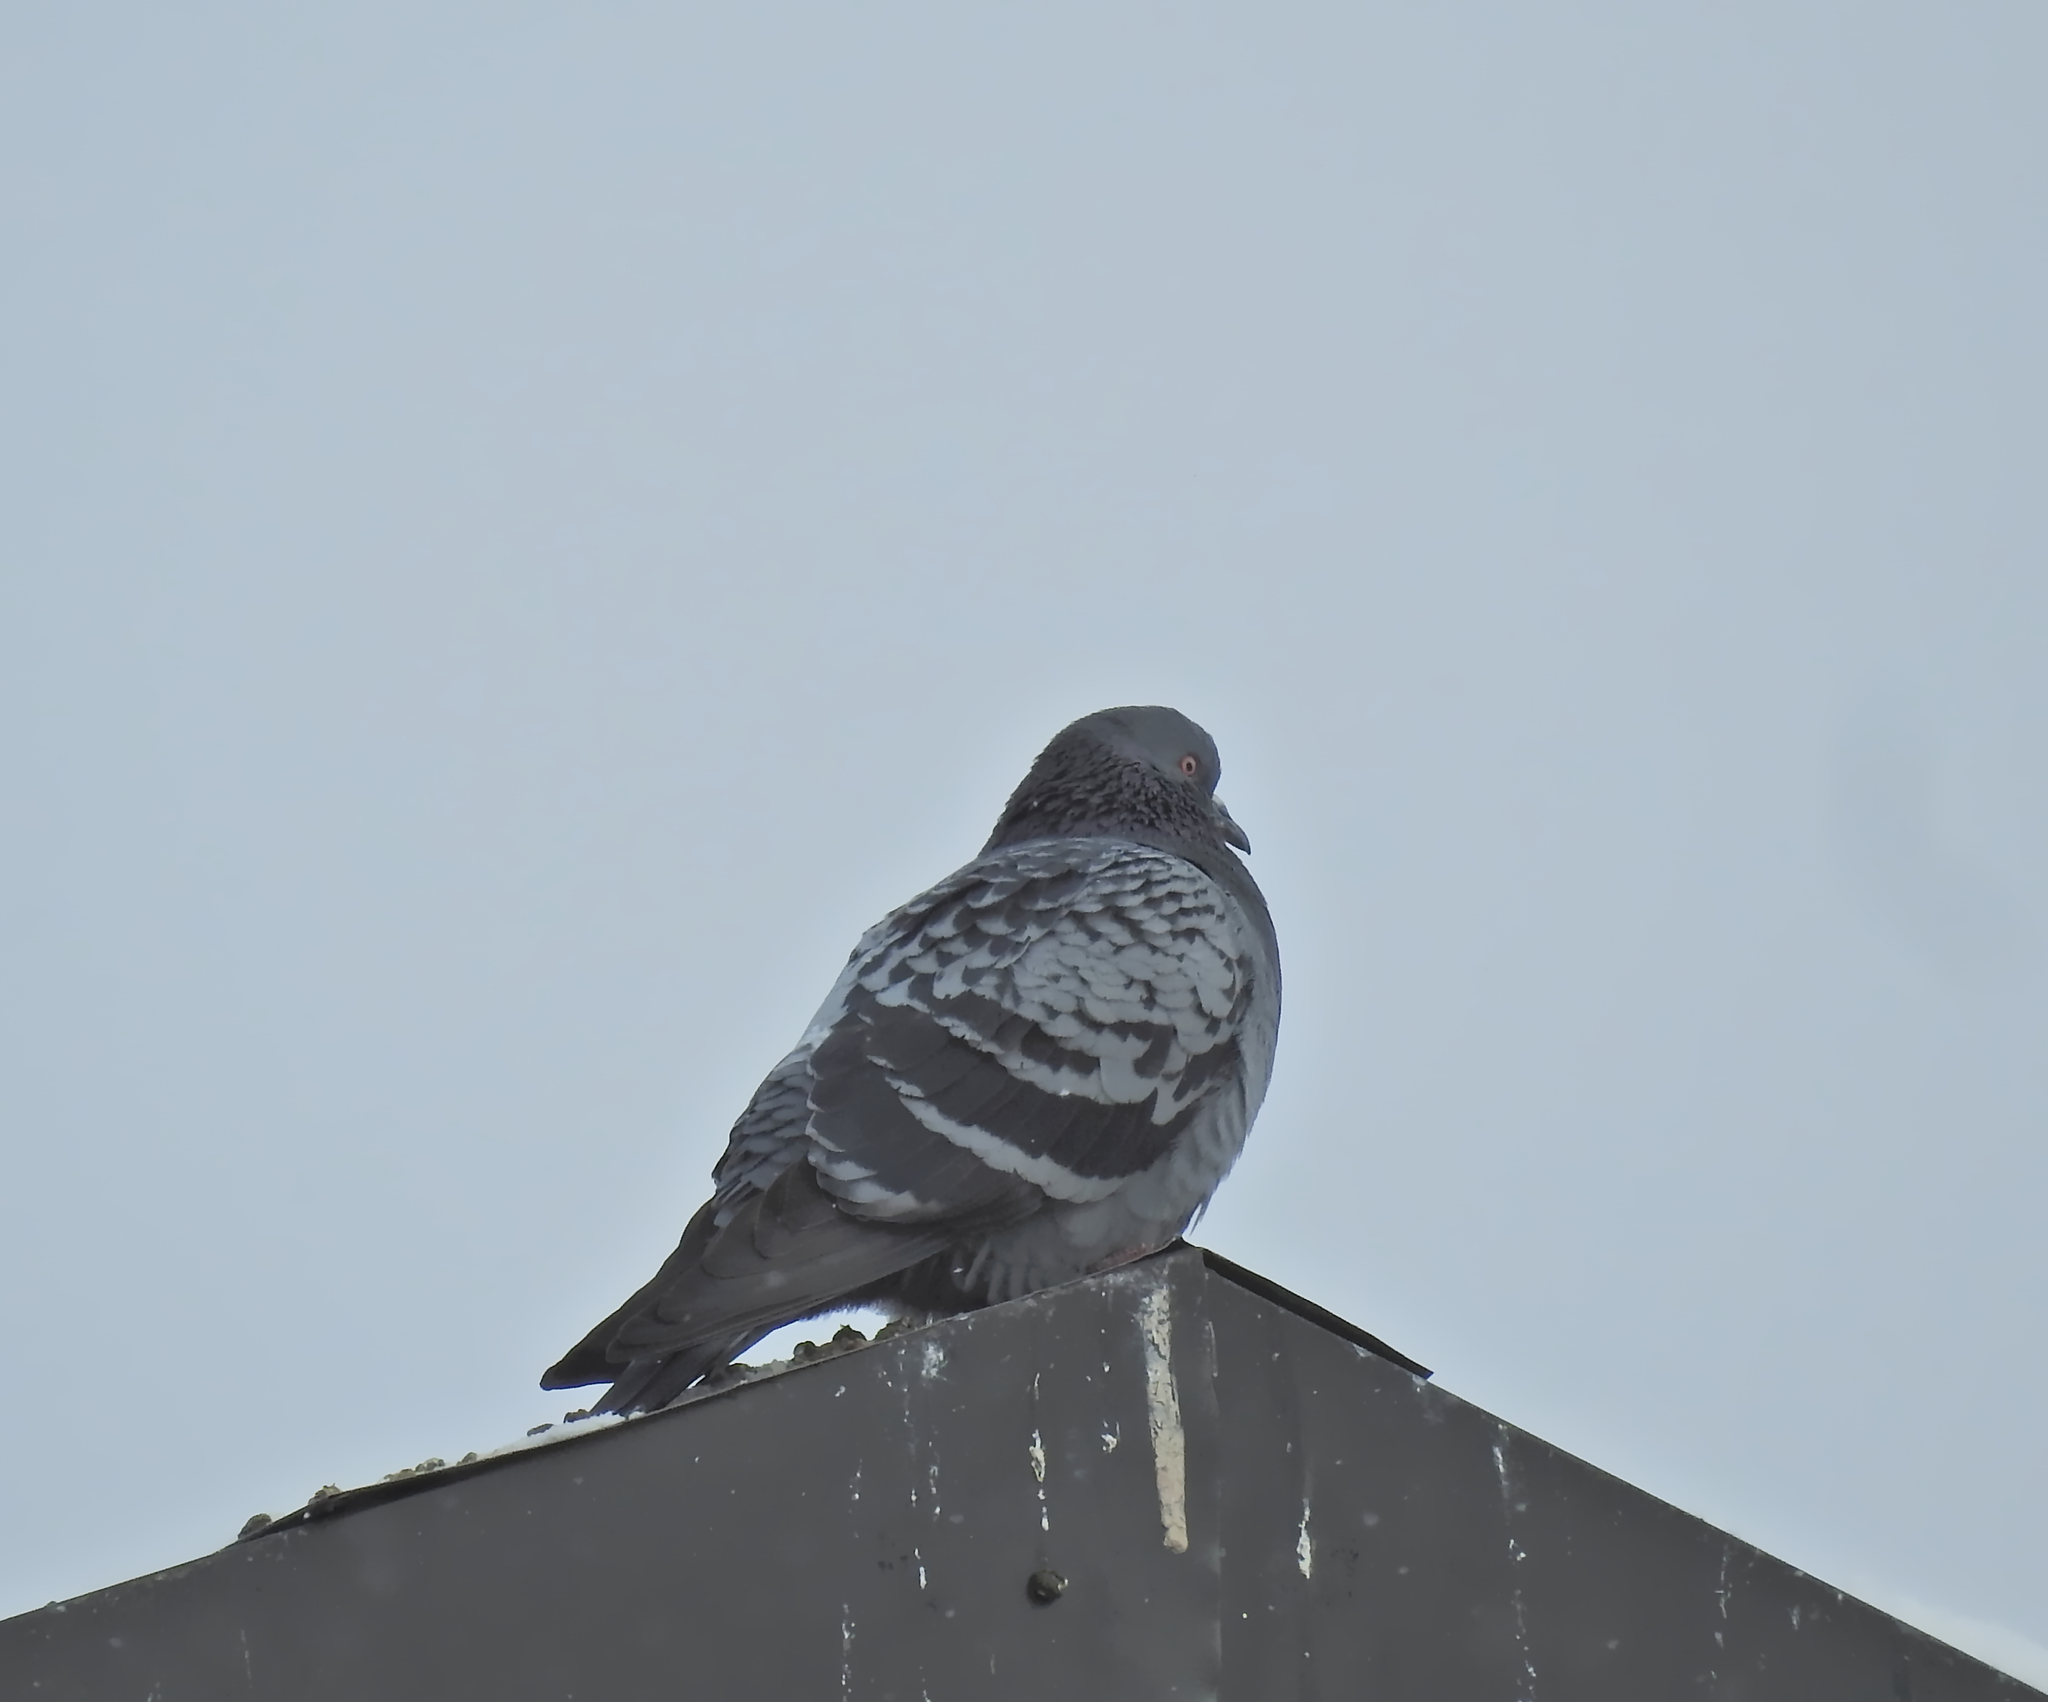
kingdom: Animalia
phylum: Chordata
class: Aves
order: Columbiformes
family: Columbidae
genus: Columba
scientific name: Columba livia
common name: Rock pigeon
